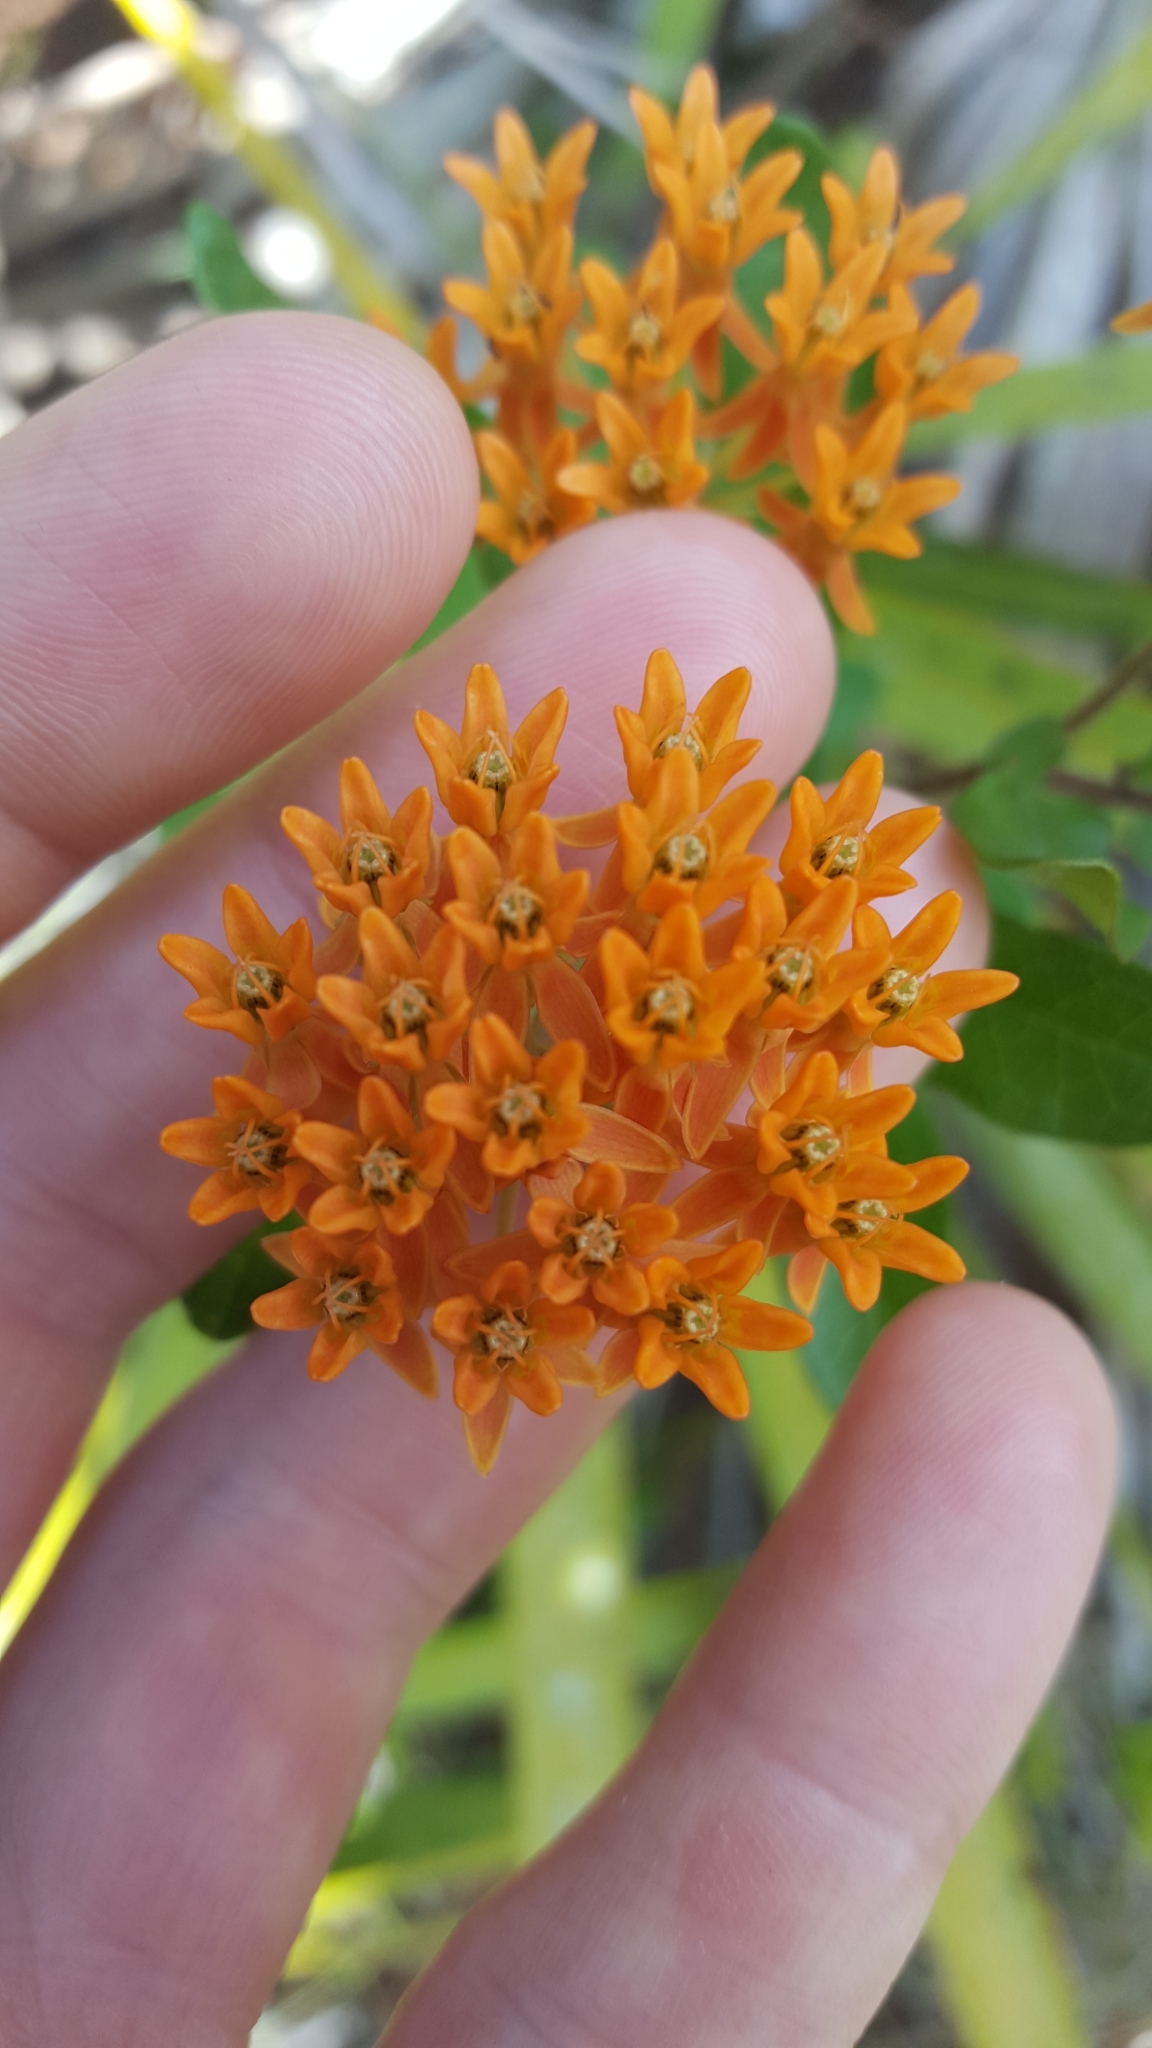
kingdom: Plantae
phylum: Tracheophyta
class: Magnoliopsida
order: Gentianales
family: Apocynaceae
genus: Asclepias
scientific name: Asclepias tuberosa
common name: Butterfly milkweed
